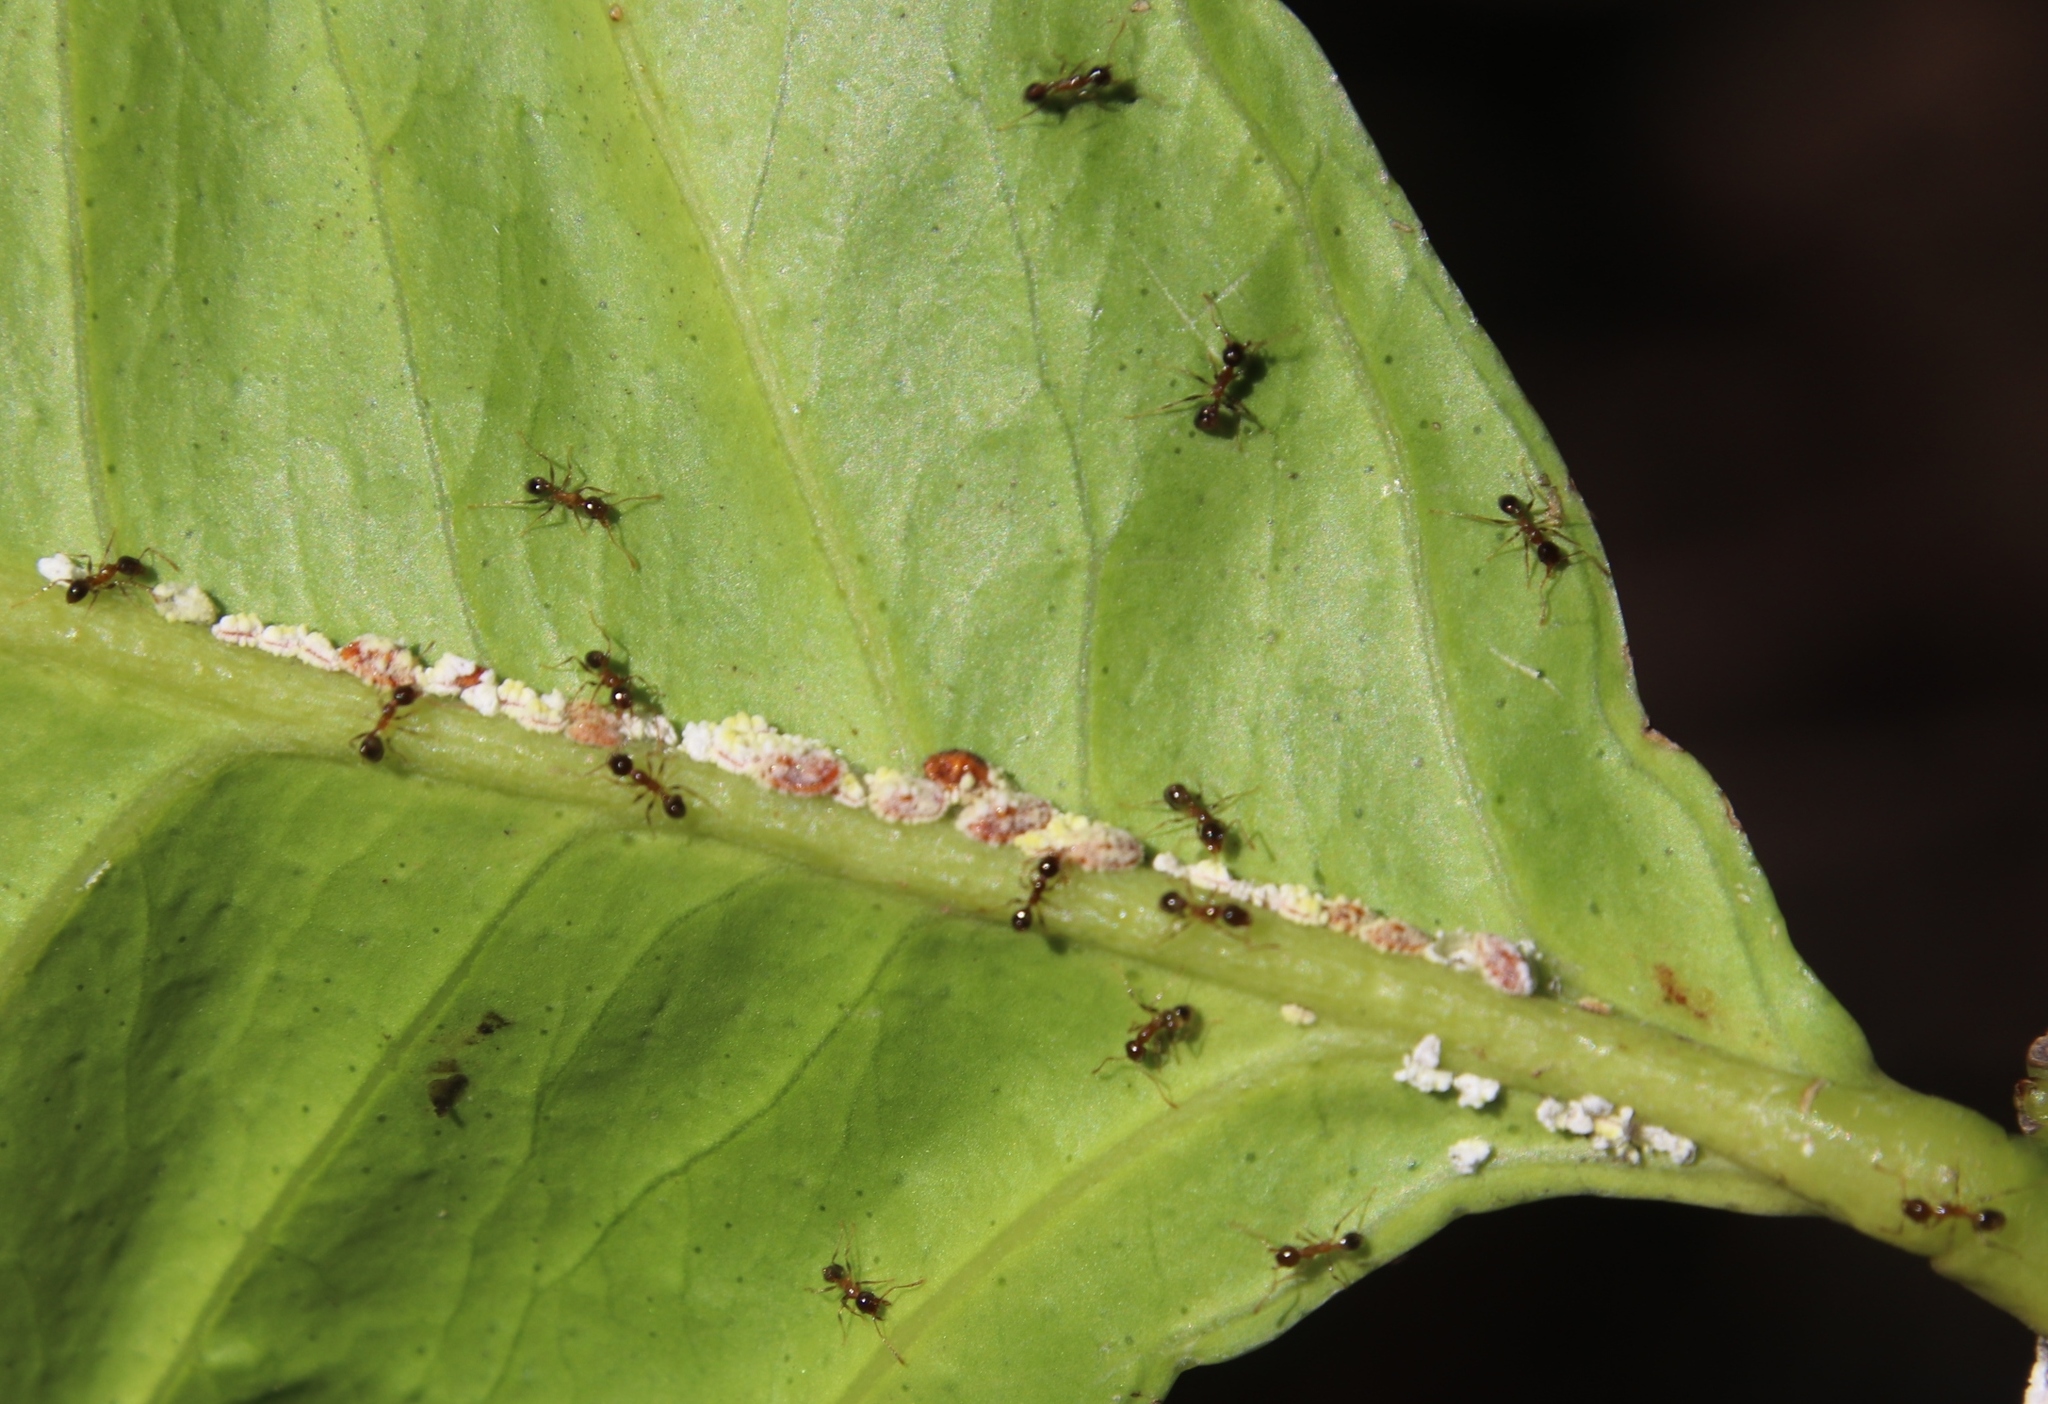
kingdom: Animalia
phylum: Arthropoda
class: Insecta
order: Hemiptera
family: Margarodidae
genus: Icerya
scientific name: Icerya purchasi
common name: Cottony cushion scale
